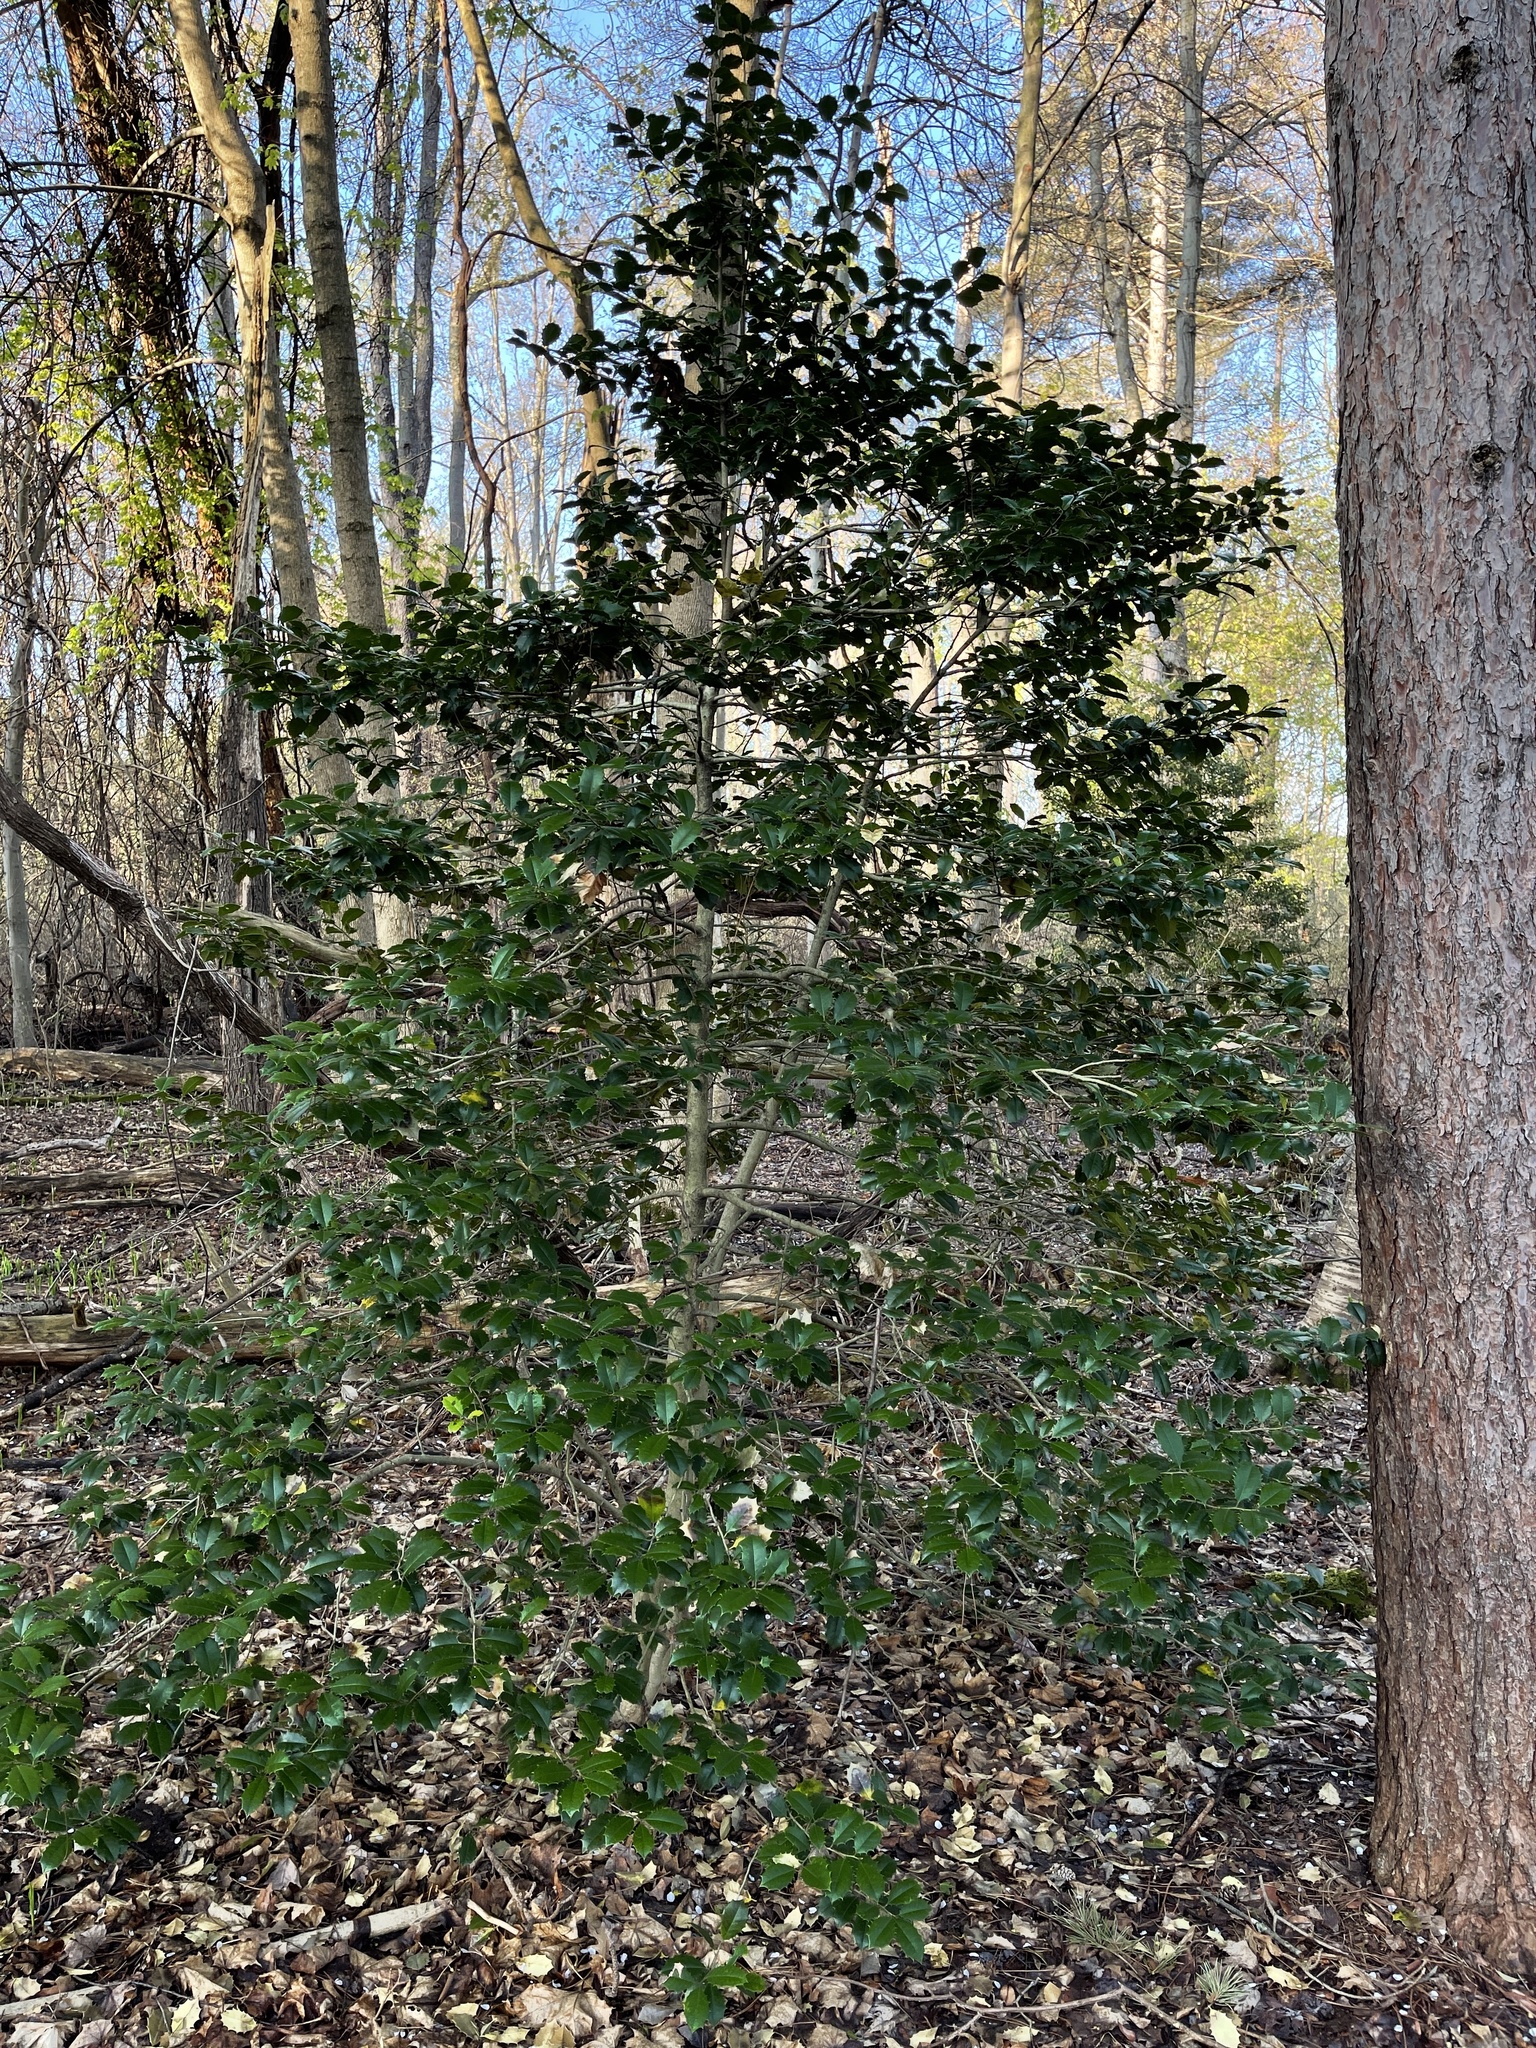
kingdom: Plantae
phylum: Tracheophyta
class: Magnoliopsida
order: Aquifoliales
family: Aquifoliaceae
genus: Ilex
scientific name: Ilex opaca
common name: American holly
